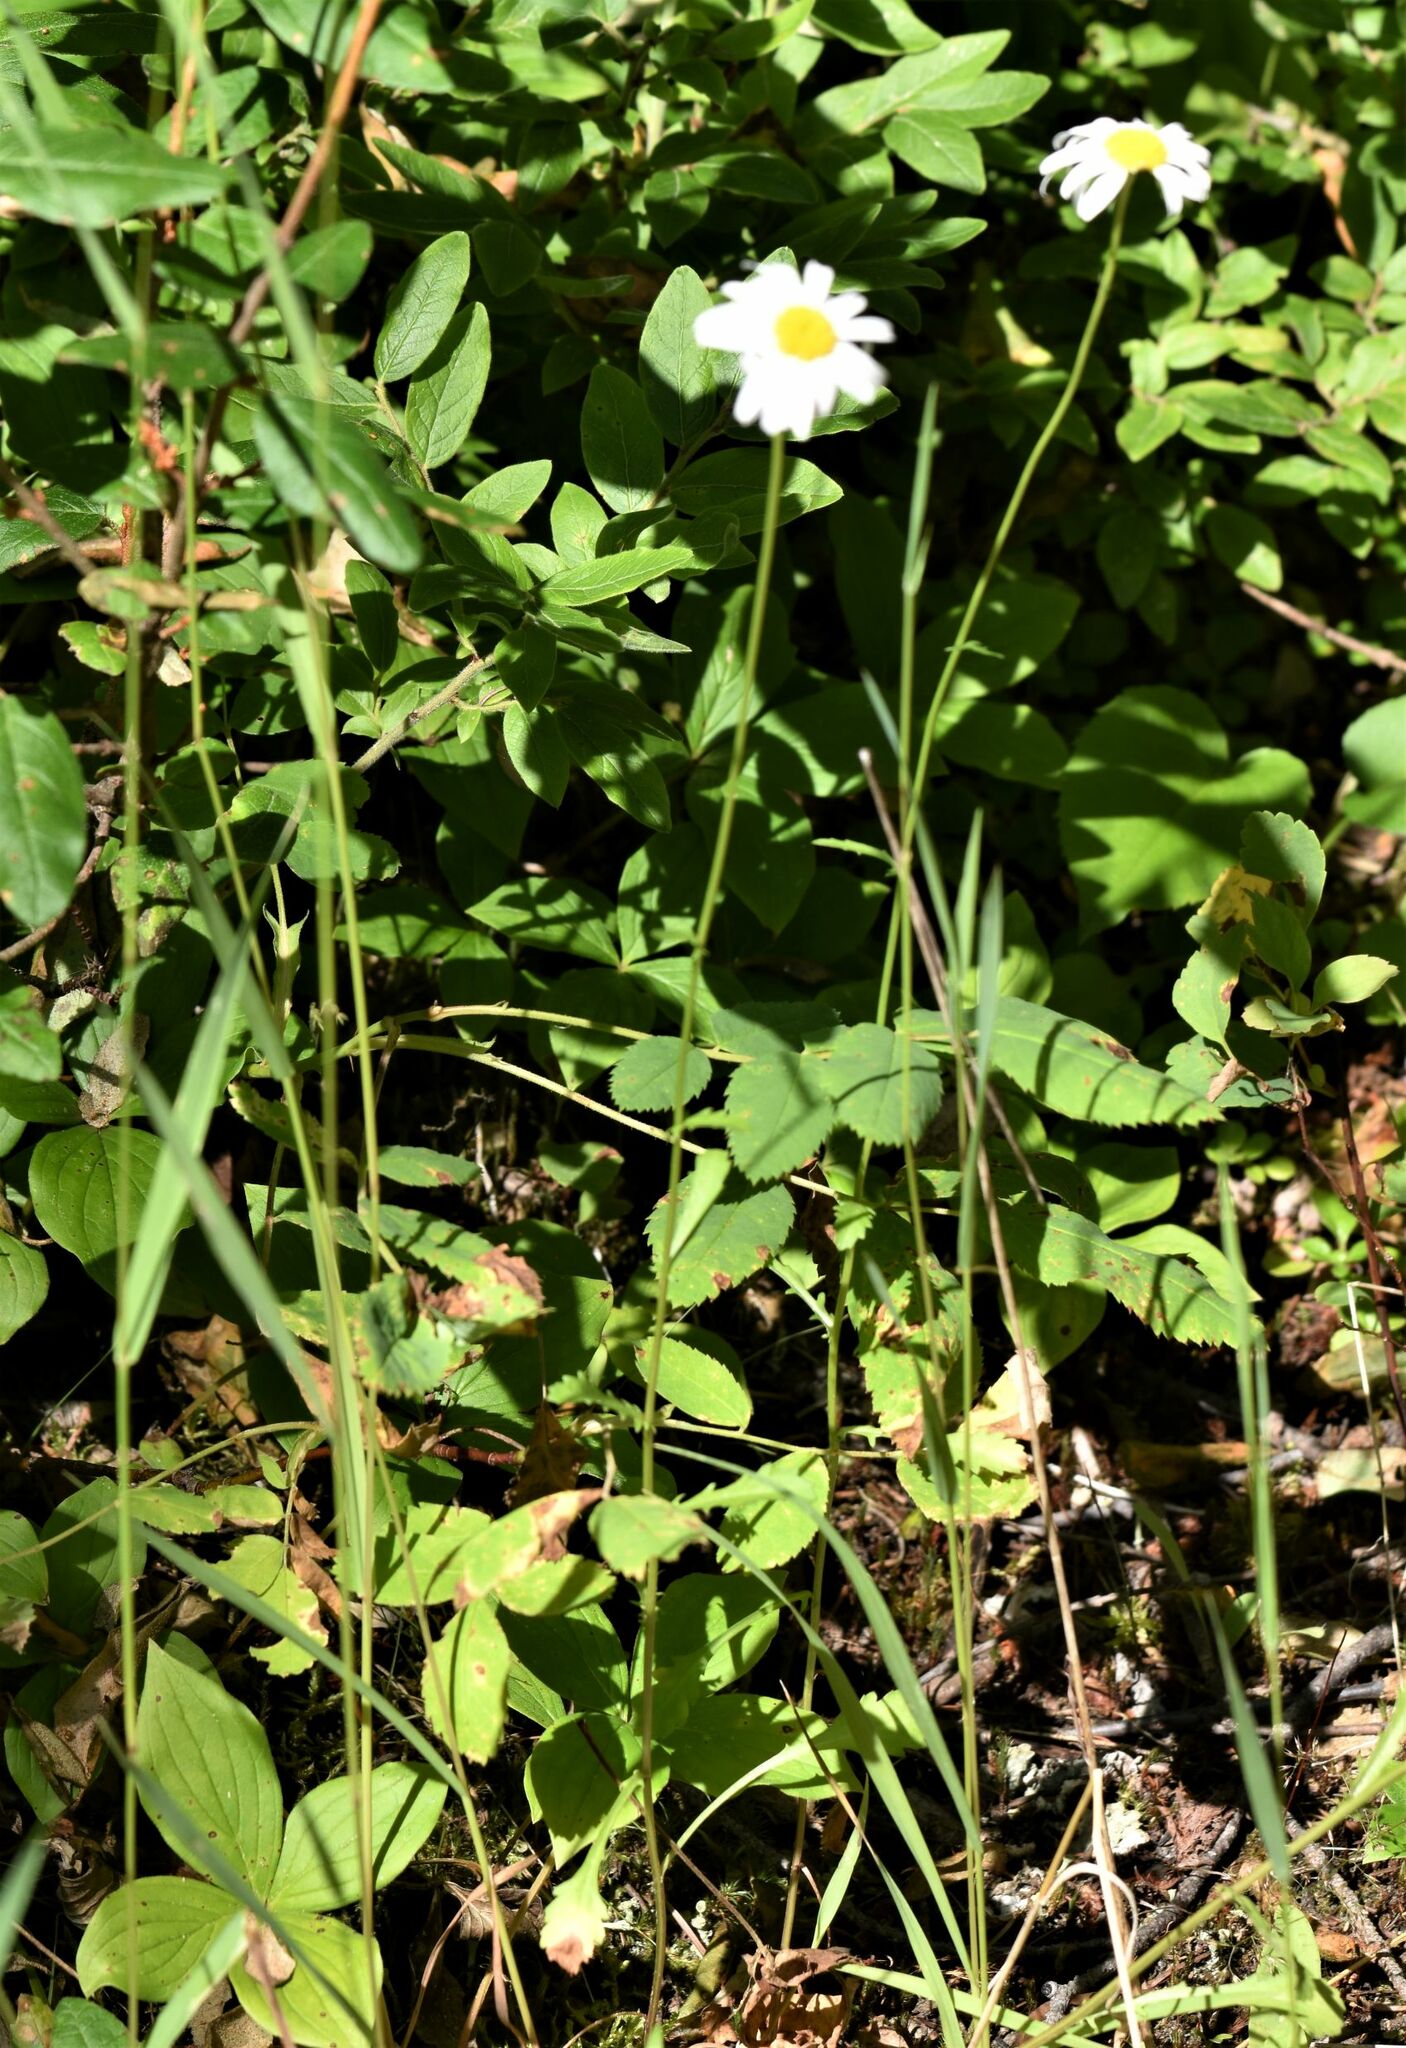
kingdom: Plantae
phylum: Tracheophyta
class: Magnoliopsida
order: Asterales
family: Asteraceae
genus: Leucanthemum
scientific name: Leucanthemum vulgare
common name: Oxeye daisy
